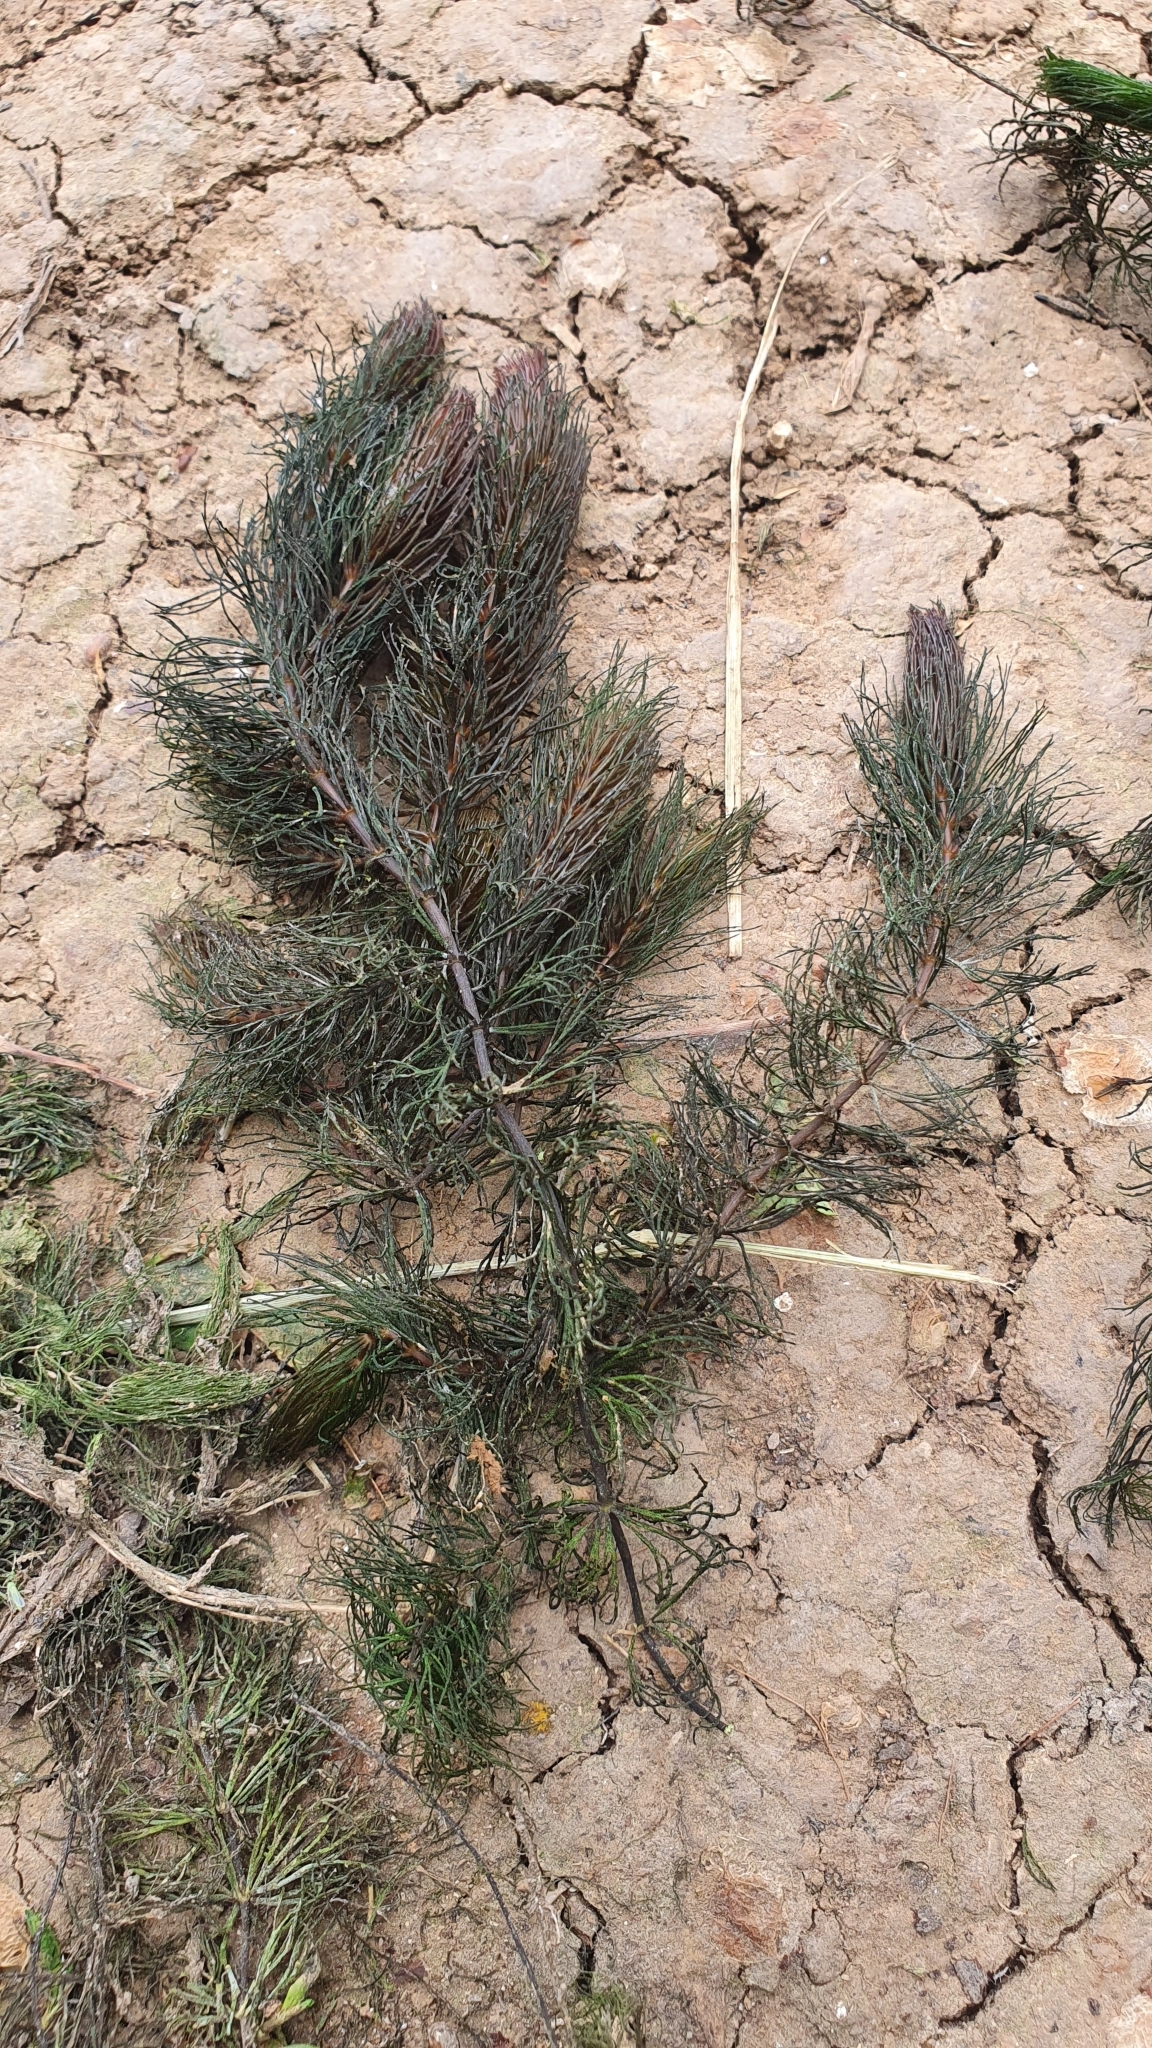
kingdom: Plantae
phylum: Tracheophyta
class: Magnoliopsida
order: Ceratophyllales
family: Ceratophyllaceae
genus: Ceratophyllum
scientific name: Ceratophyllum demersum
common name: Rigid hornwort
